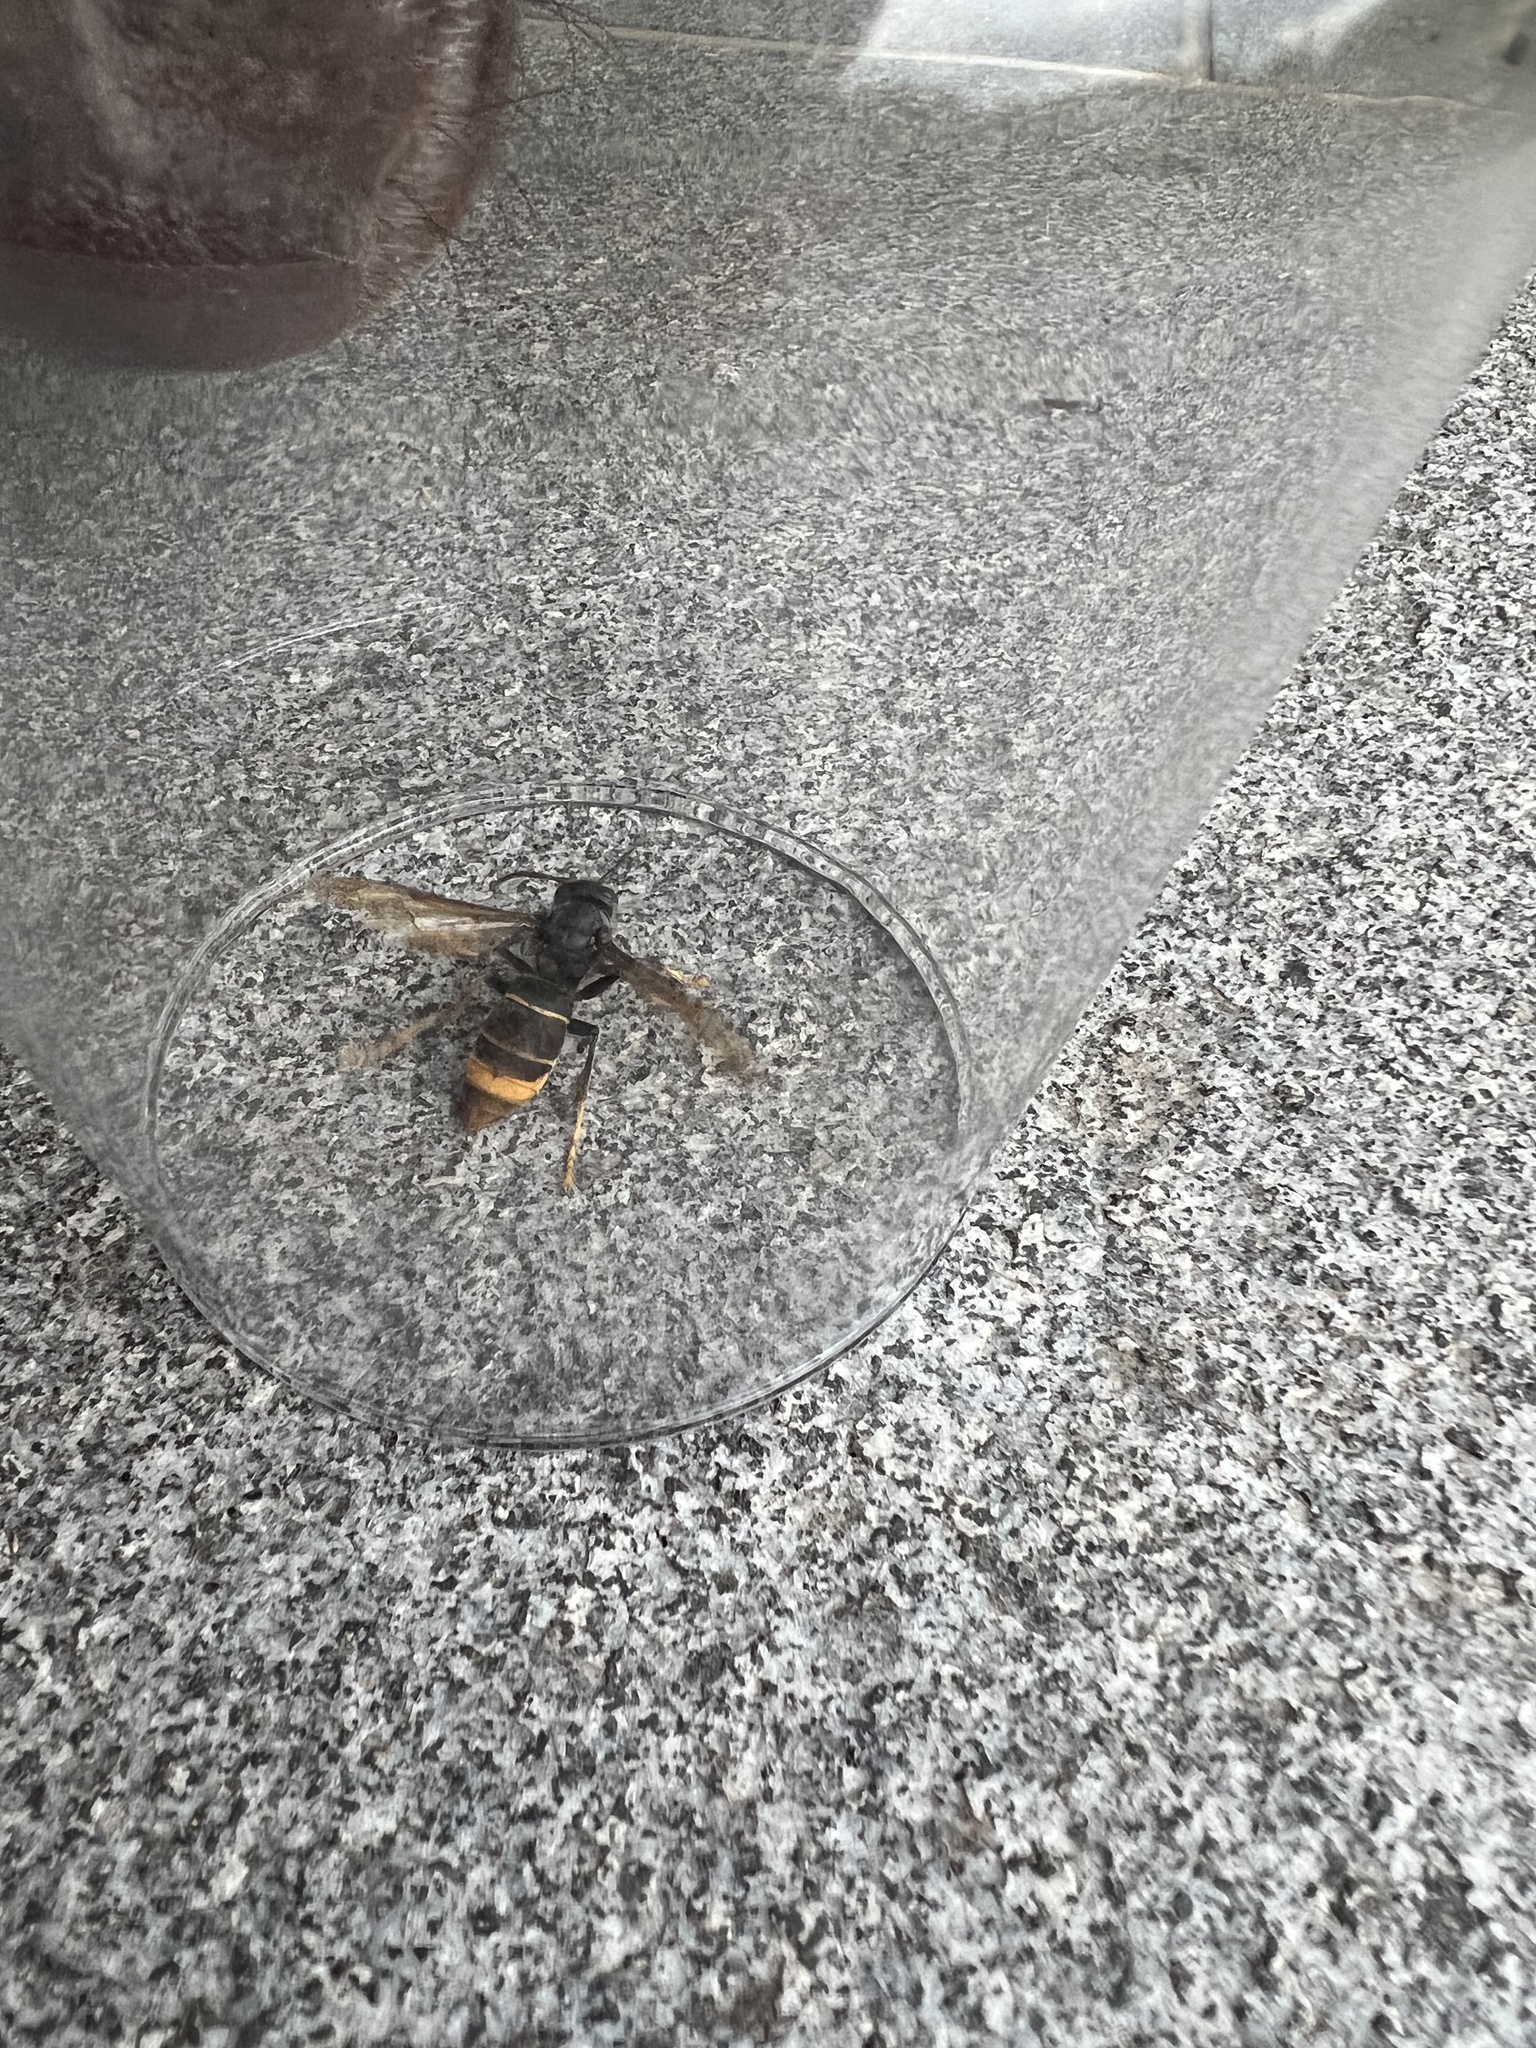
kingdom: Animalia
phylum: Arthropoda
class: Insecta
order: Hymenoptera
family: Vespidae
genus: Vespa
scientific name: Vespa velutina
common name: Asian hornet
